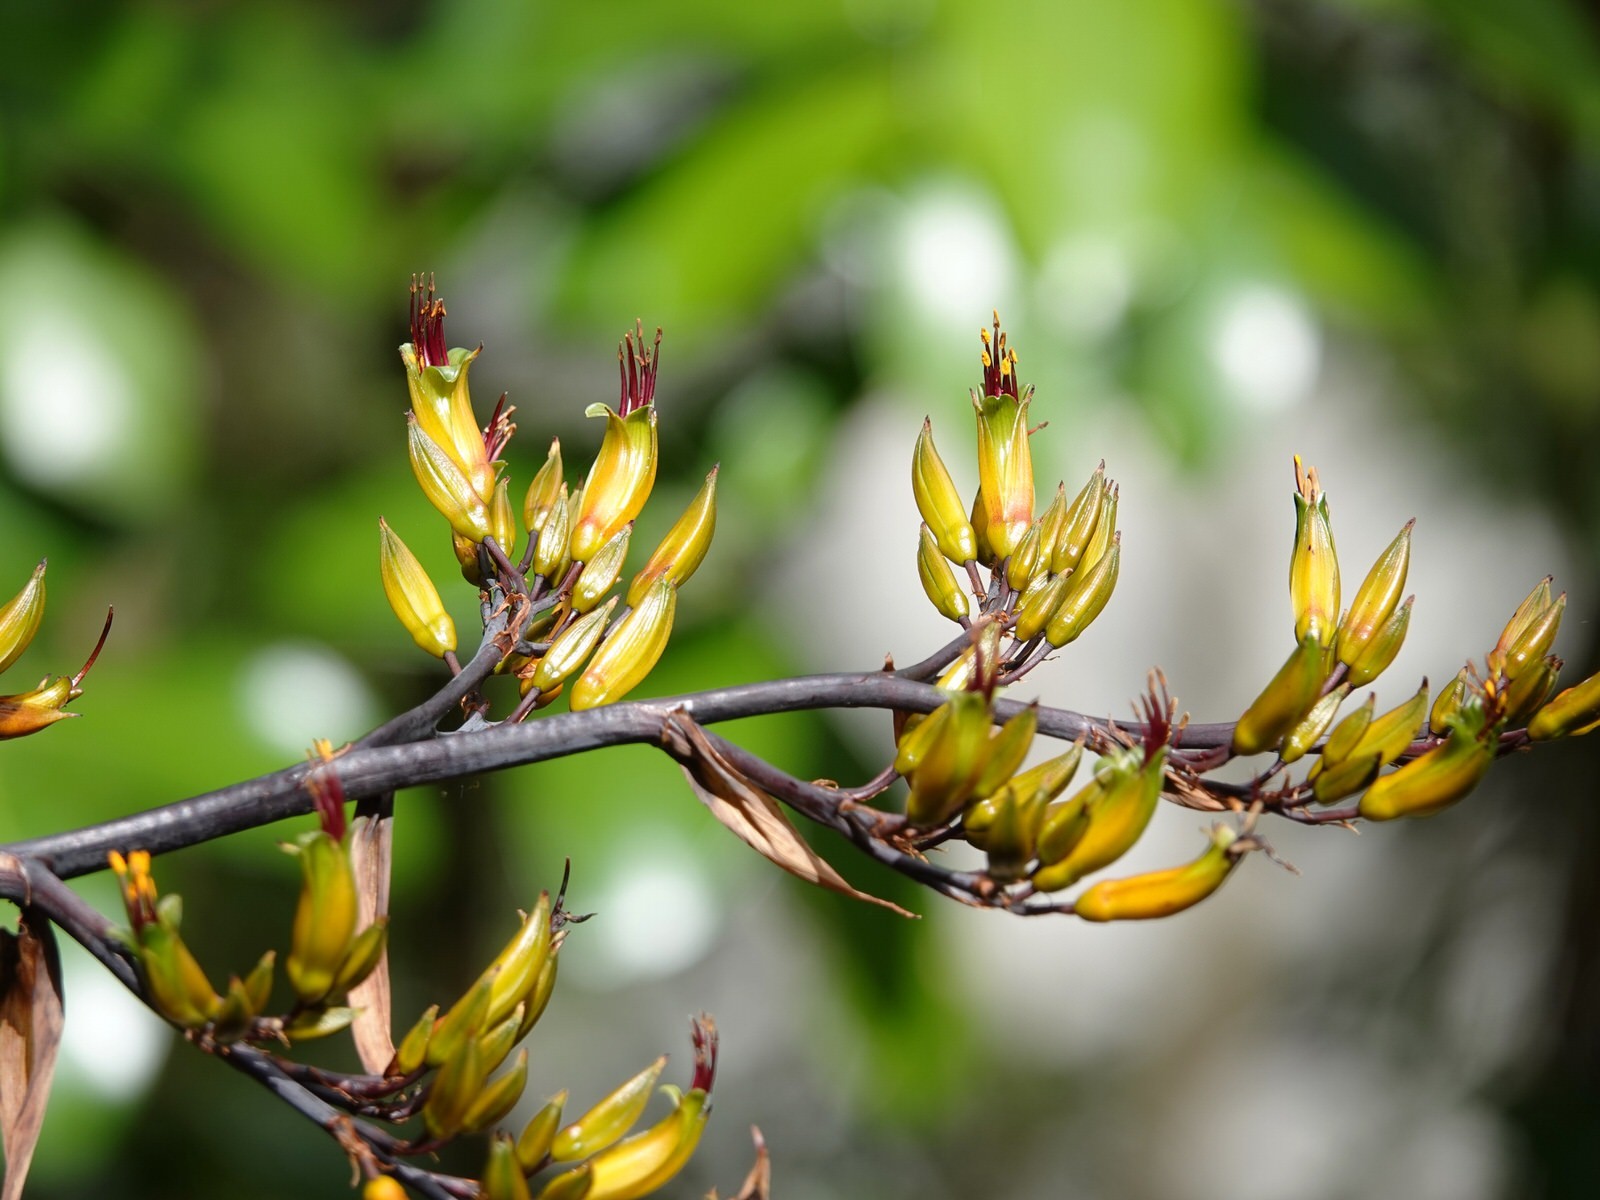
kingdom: Plantae
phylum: Tracheophyta
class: Liliopsida
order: Asparagales
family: Asphodelaceae
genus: Phormium
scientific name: Phormium colensoi
